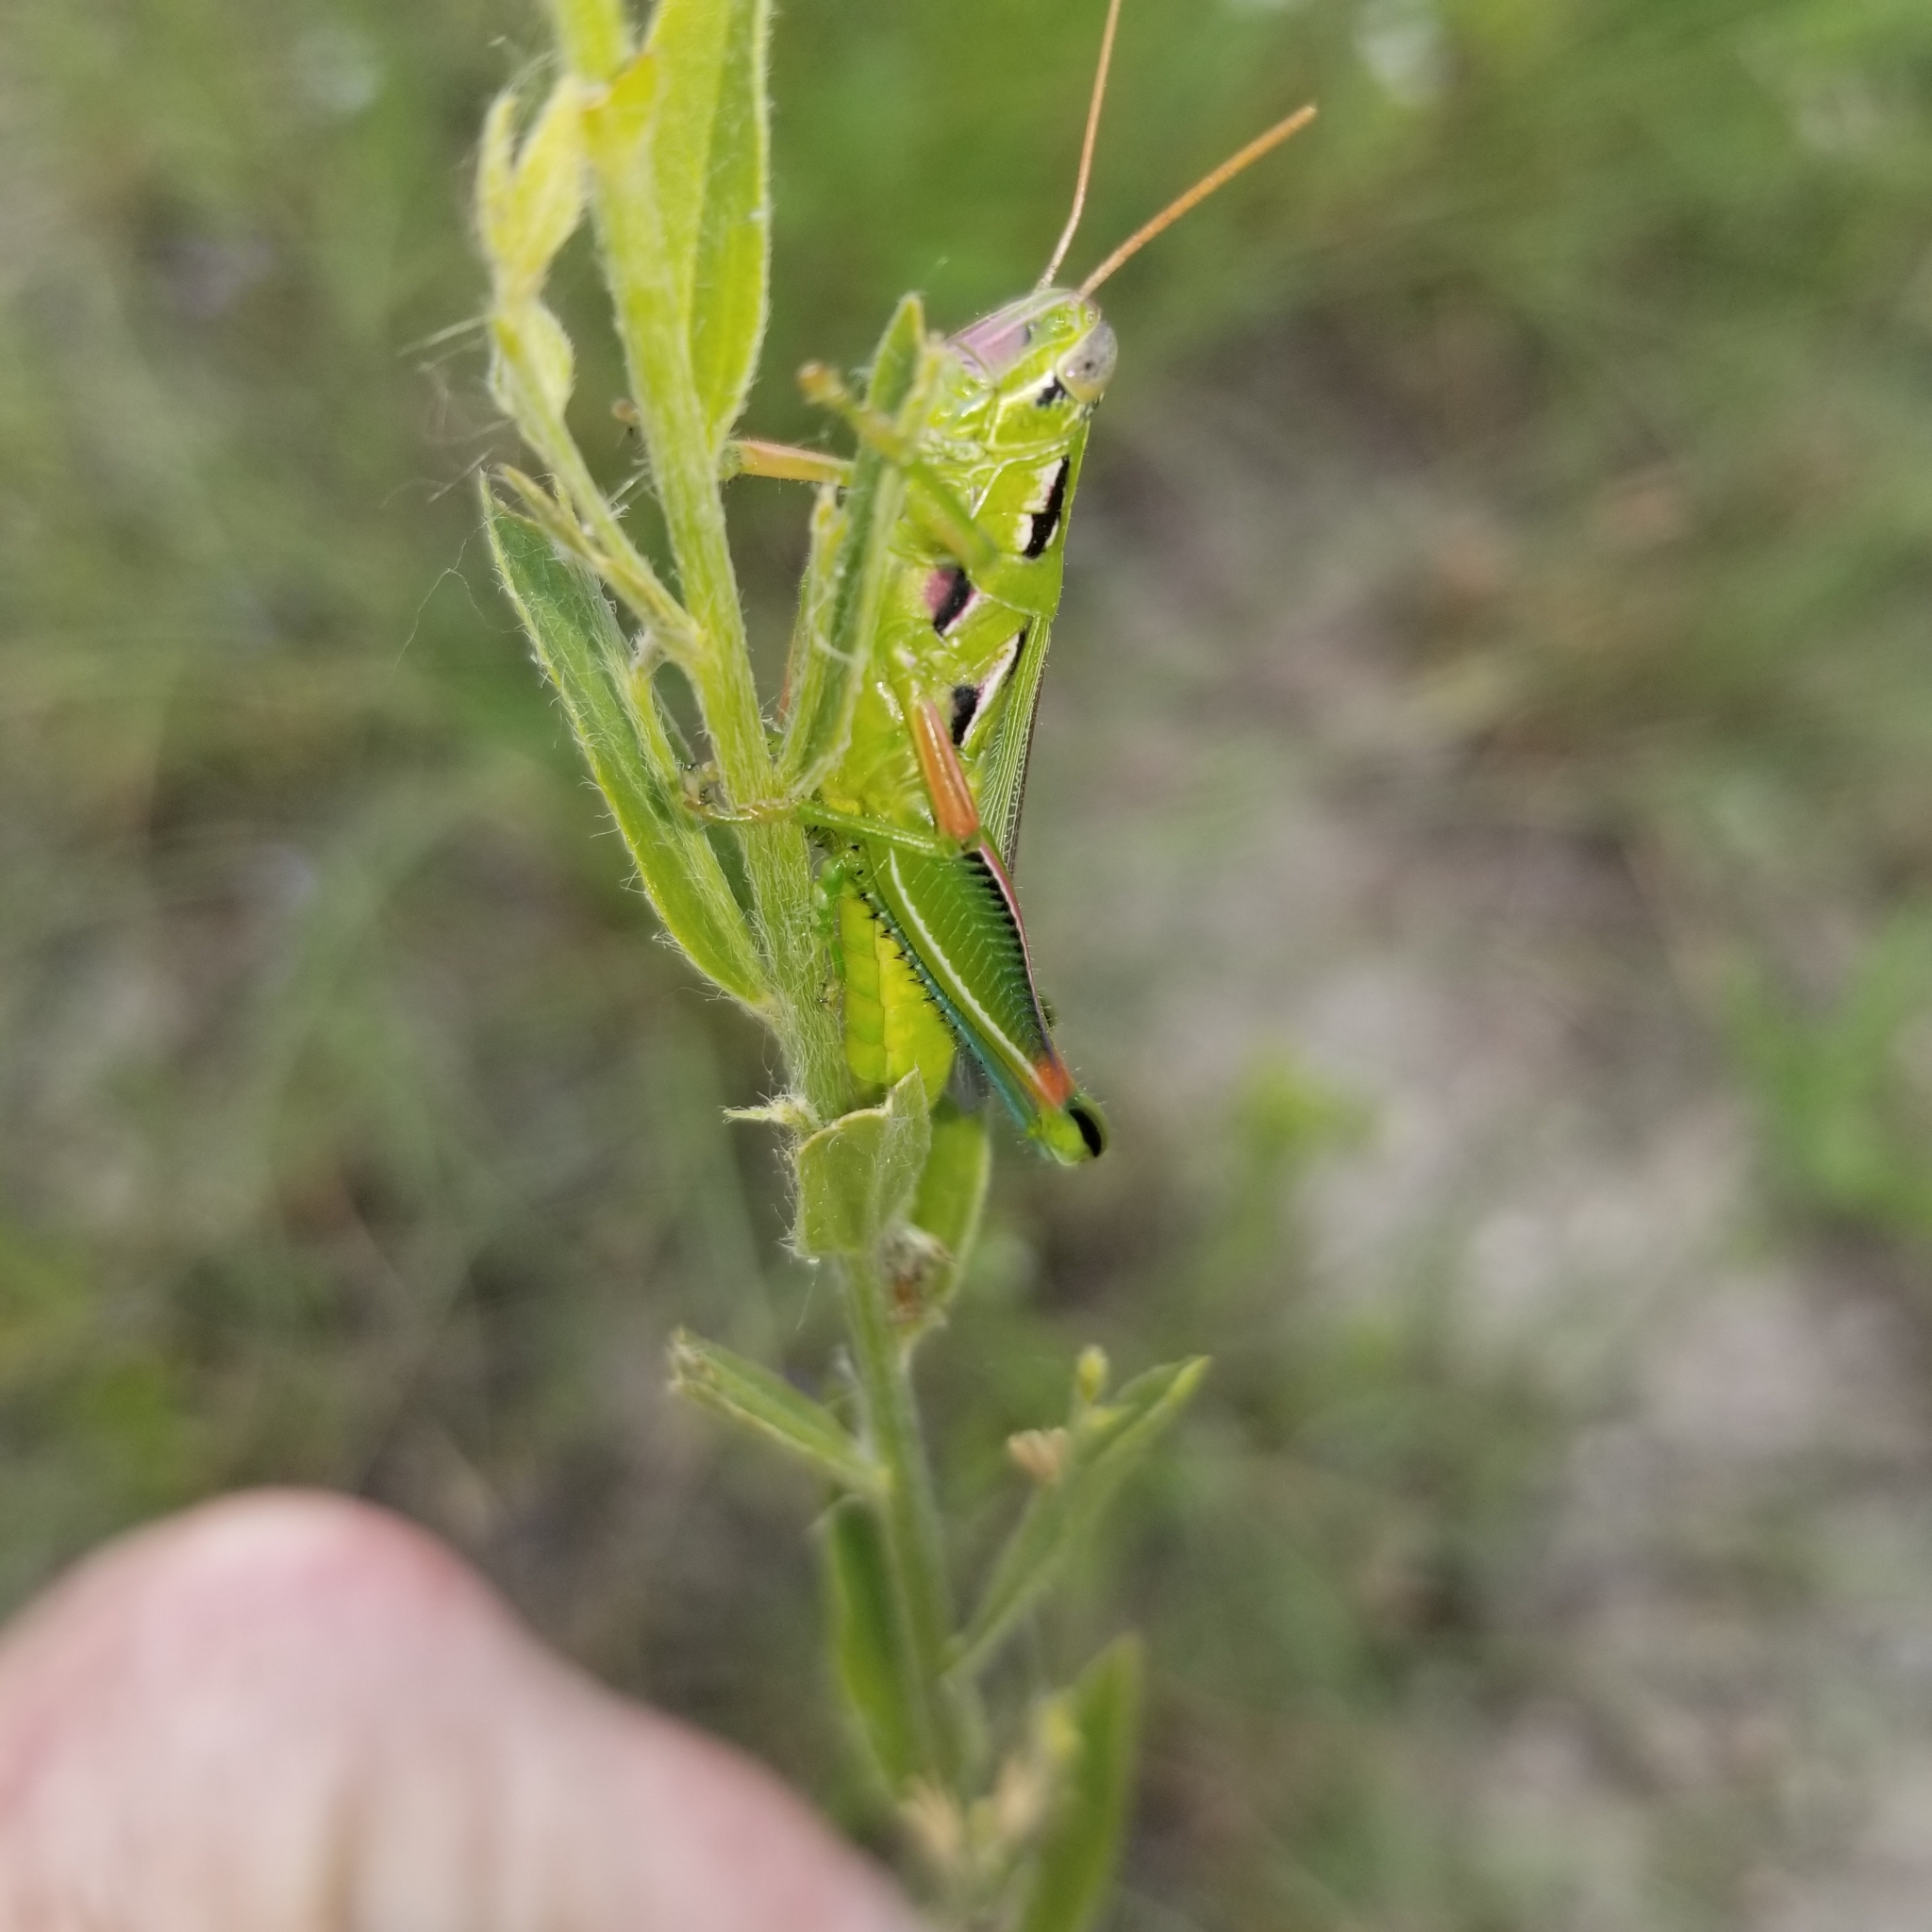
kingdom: Animalia
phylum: Arthropoda
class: Insecta
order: Orthoptera
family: Acrididae
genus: Hesperotettix
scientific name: Hesperotettix viridis
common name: Meadow purple-striped grasshopper
